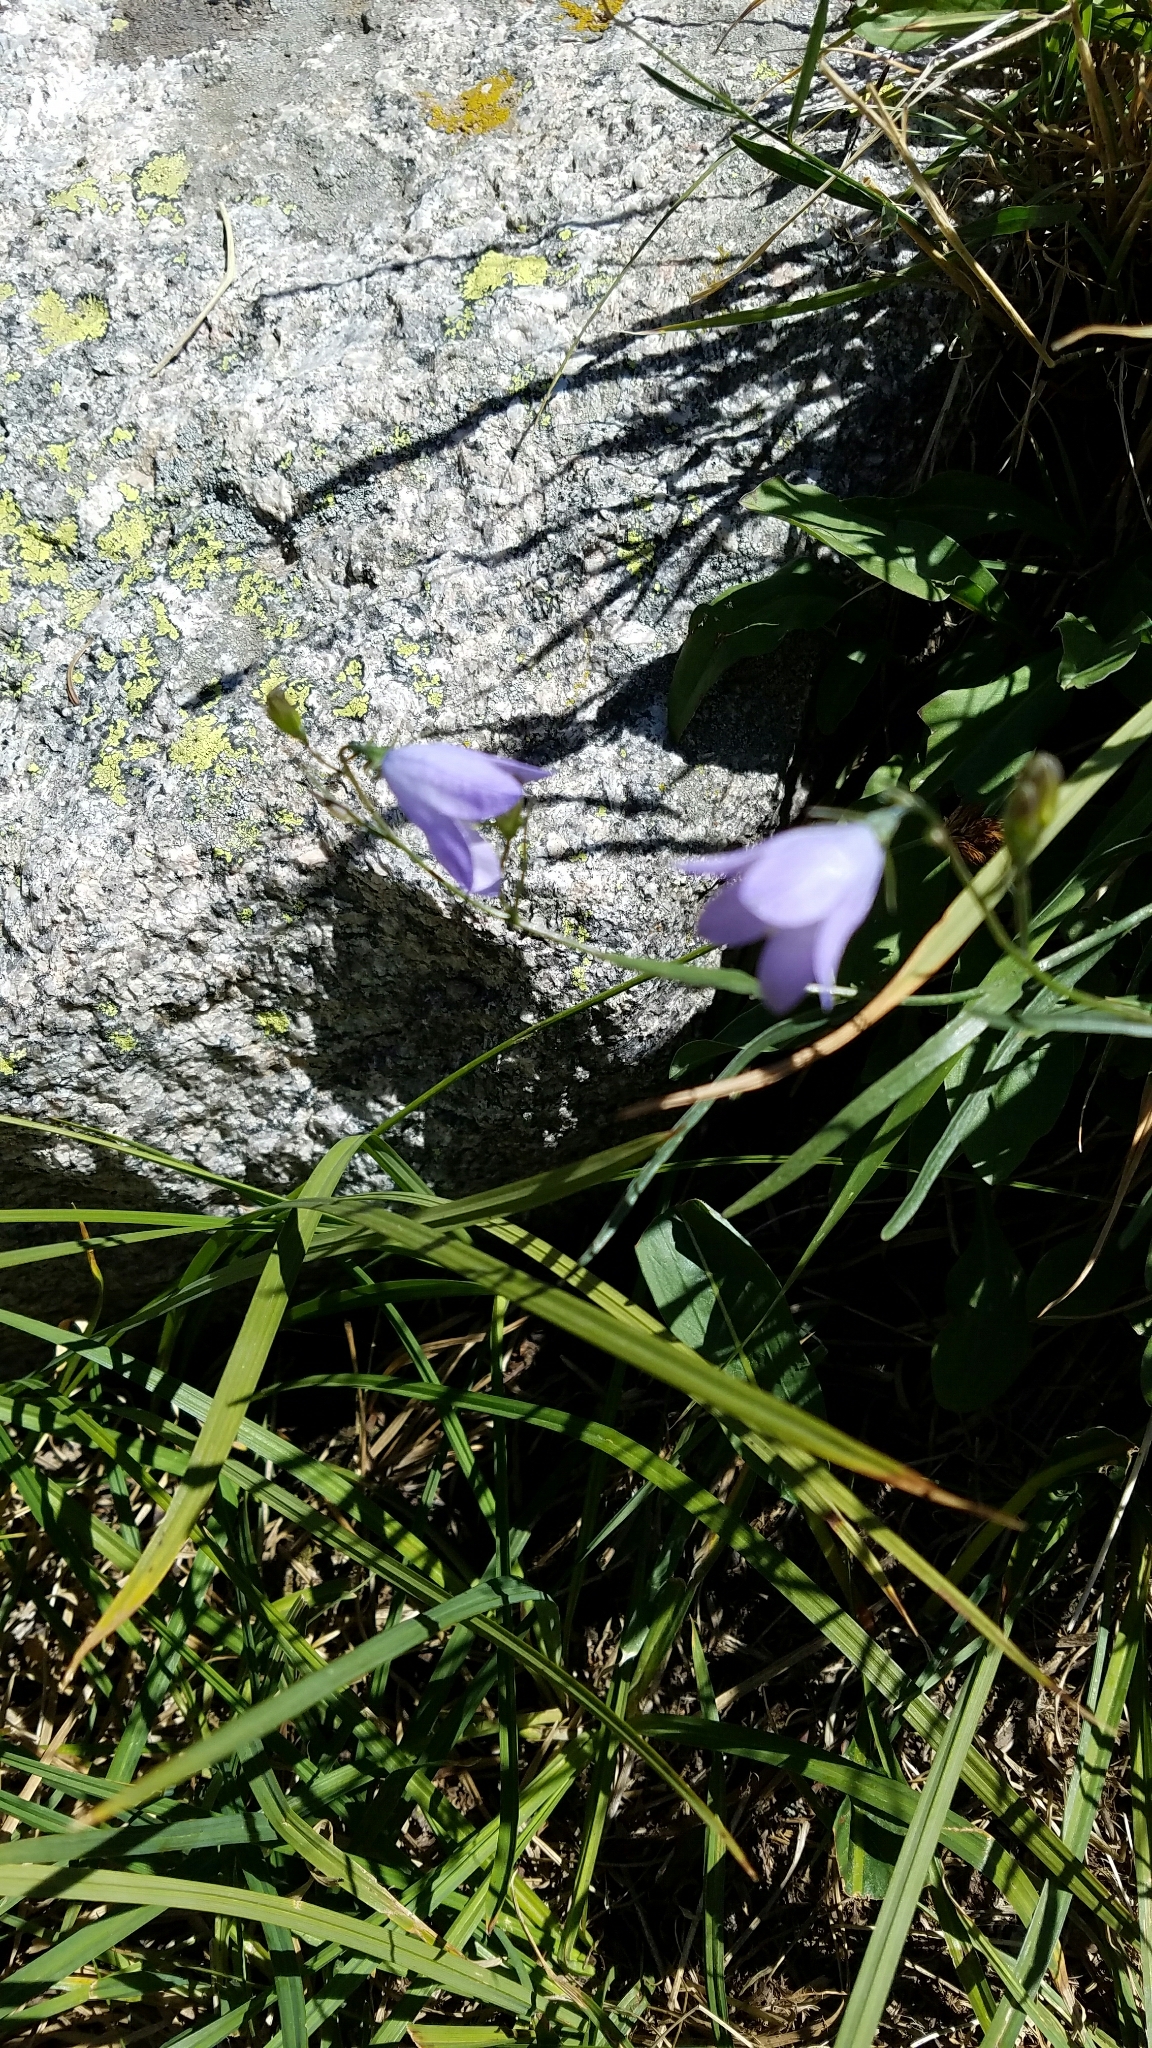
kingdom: Plantae
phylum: Tracheophyta
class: Magnoliopsida
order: Asterales
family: Campanulaceae
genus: Campanula
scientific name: Campanula petiolata
